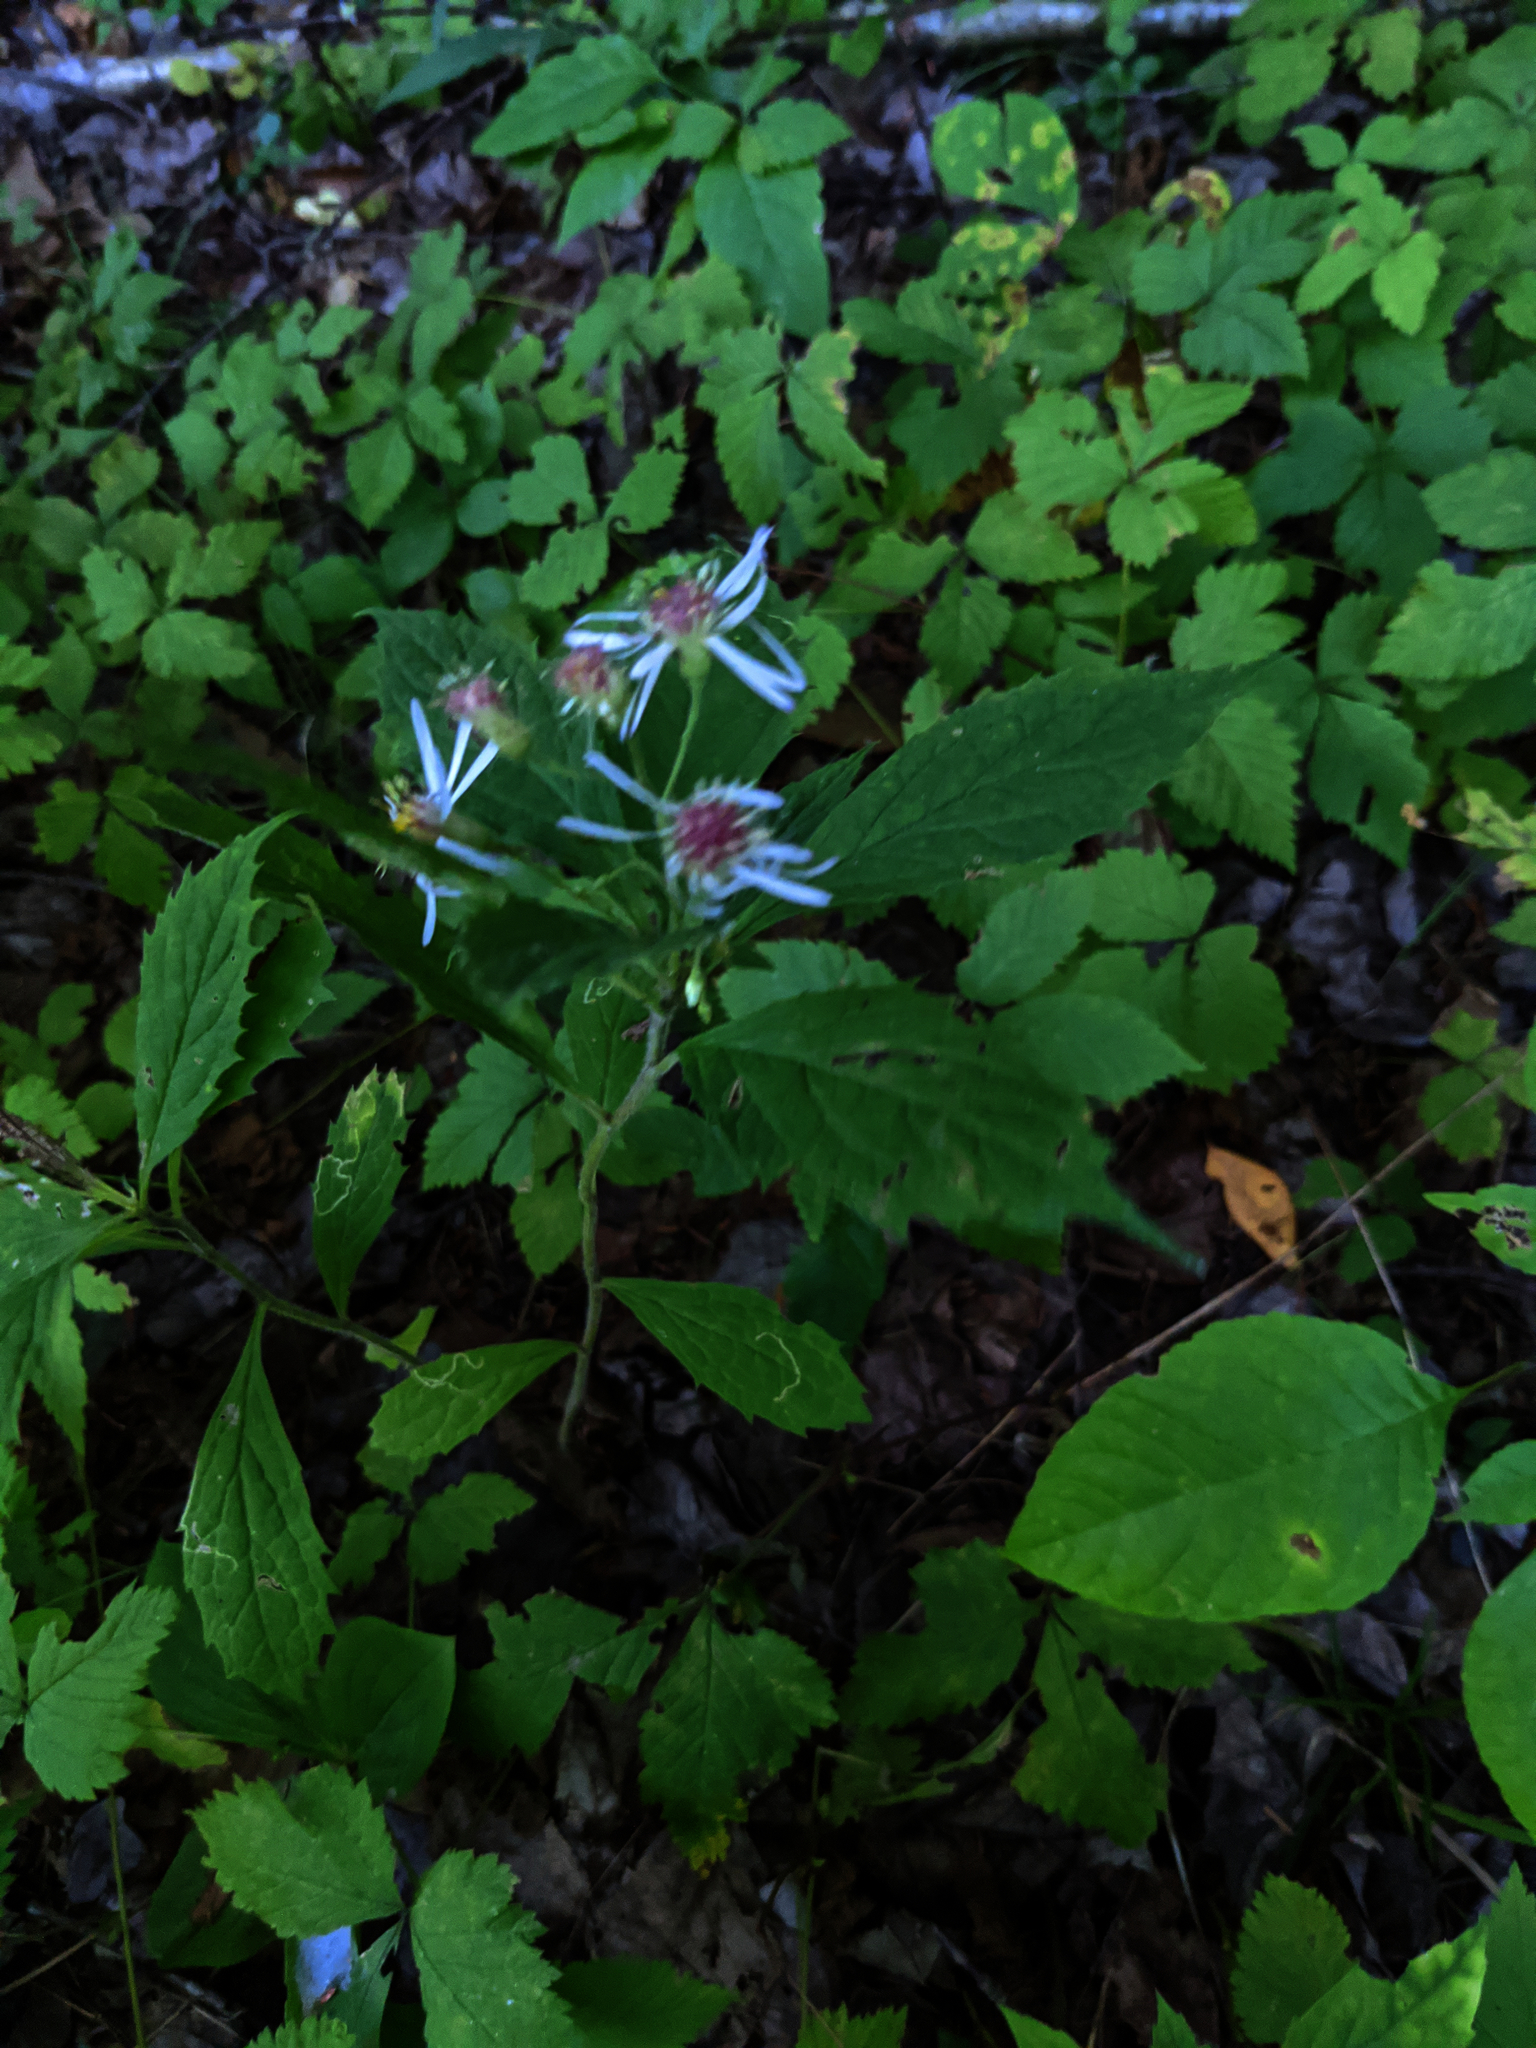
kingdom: Plantae
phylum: Tracheophyta
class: Magnoliopsida
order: Asterales
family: Asteraceae
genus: Oclemena
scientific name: Oclemena acuminata
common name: Mountain aster
